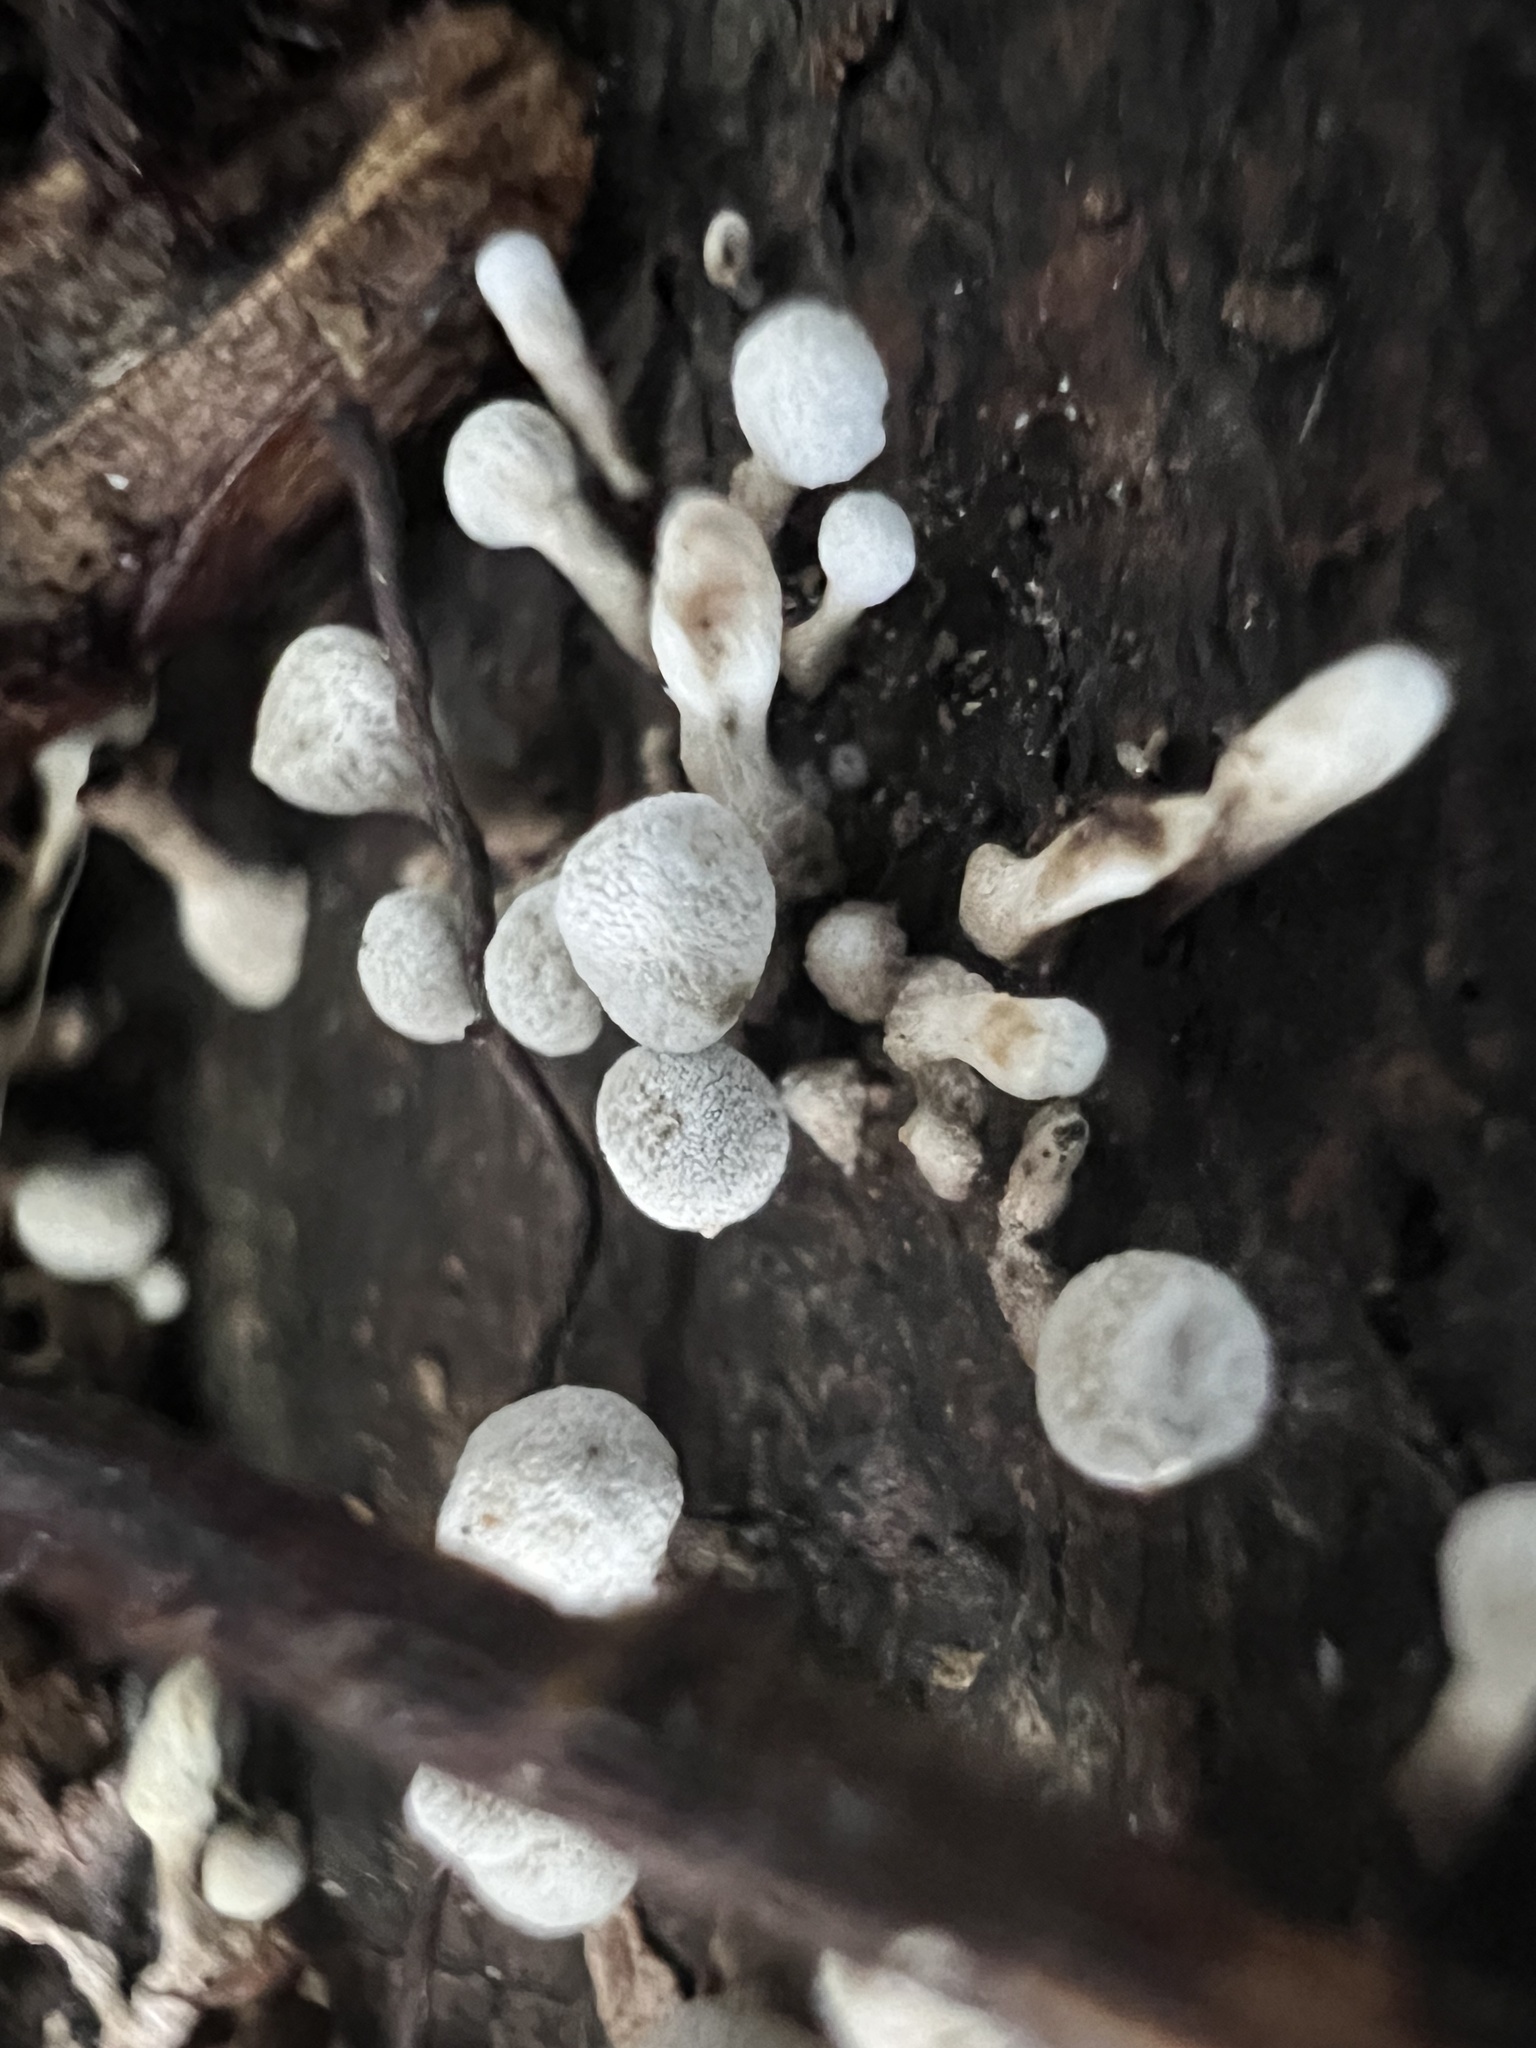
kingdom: Fungi
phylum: Basidiomycota
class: Atractiellomycetes
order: Atractiellales
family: Phleogenaceae
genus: Phleogena
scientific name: Phleogena faginea
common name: Fenugreek stalkball
